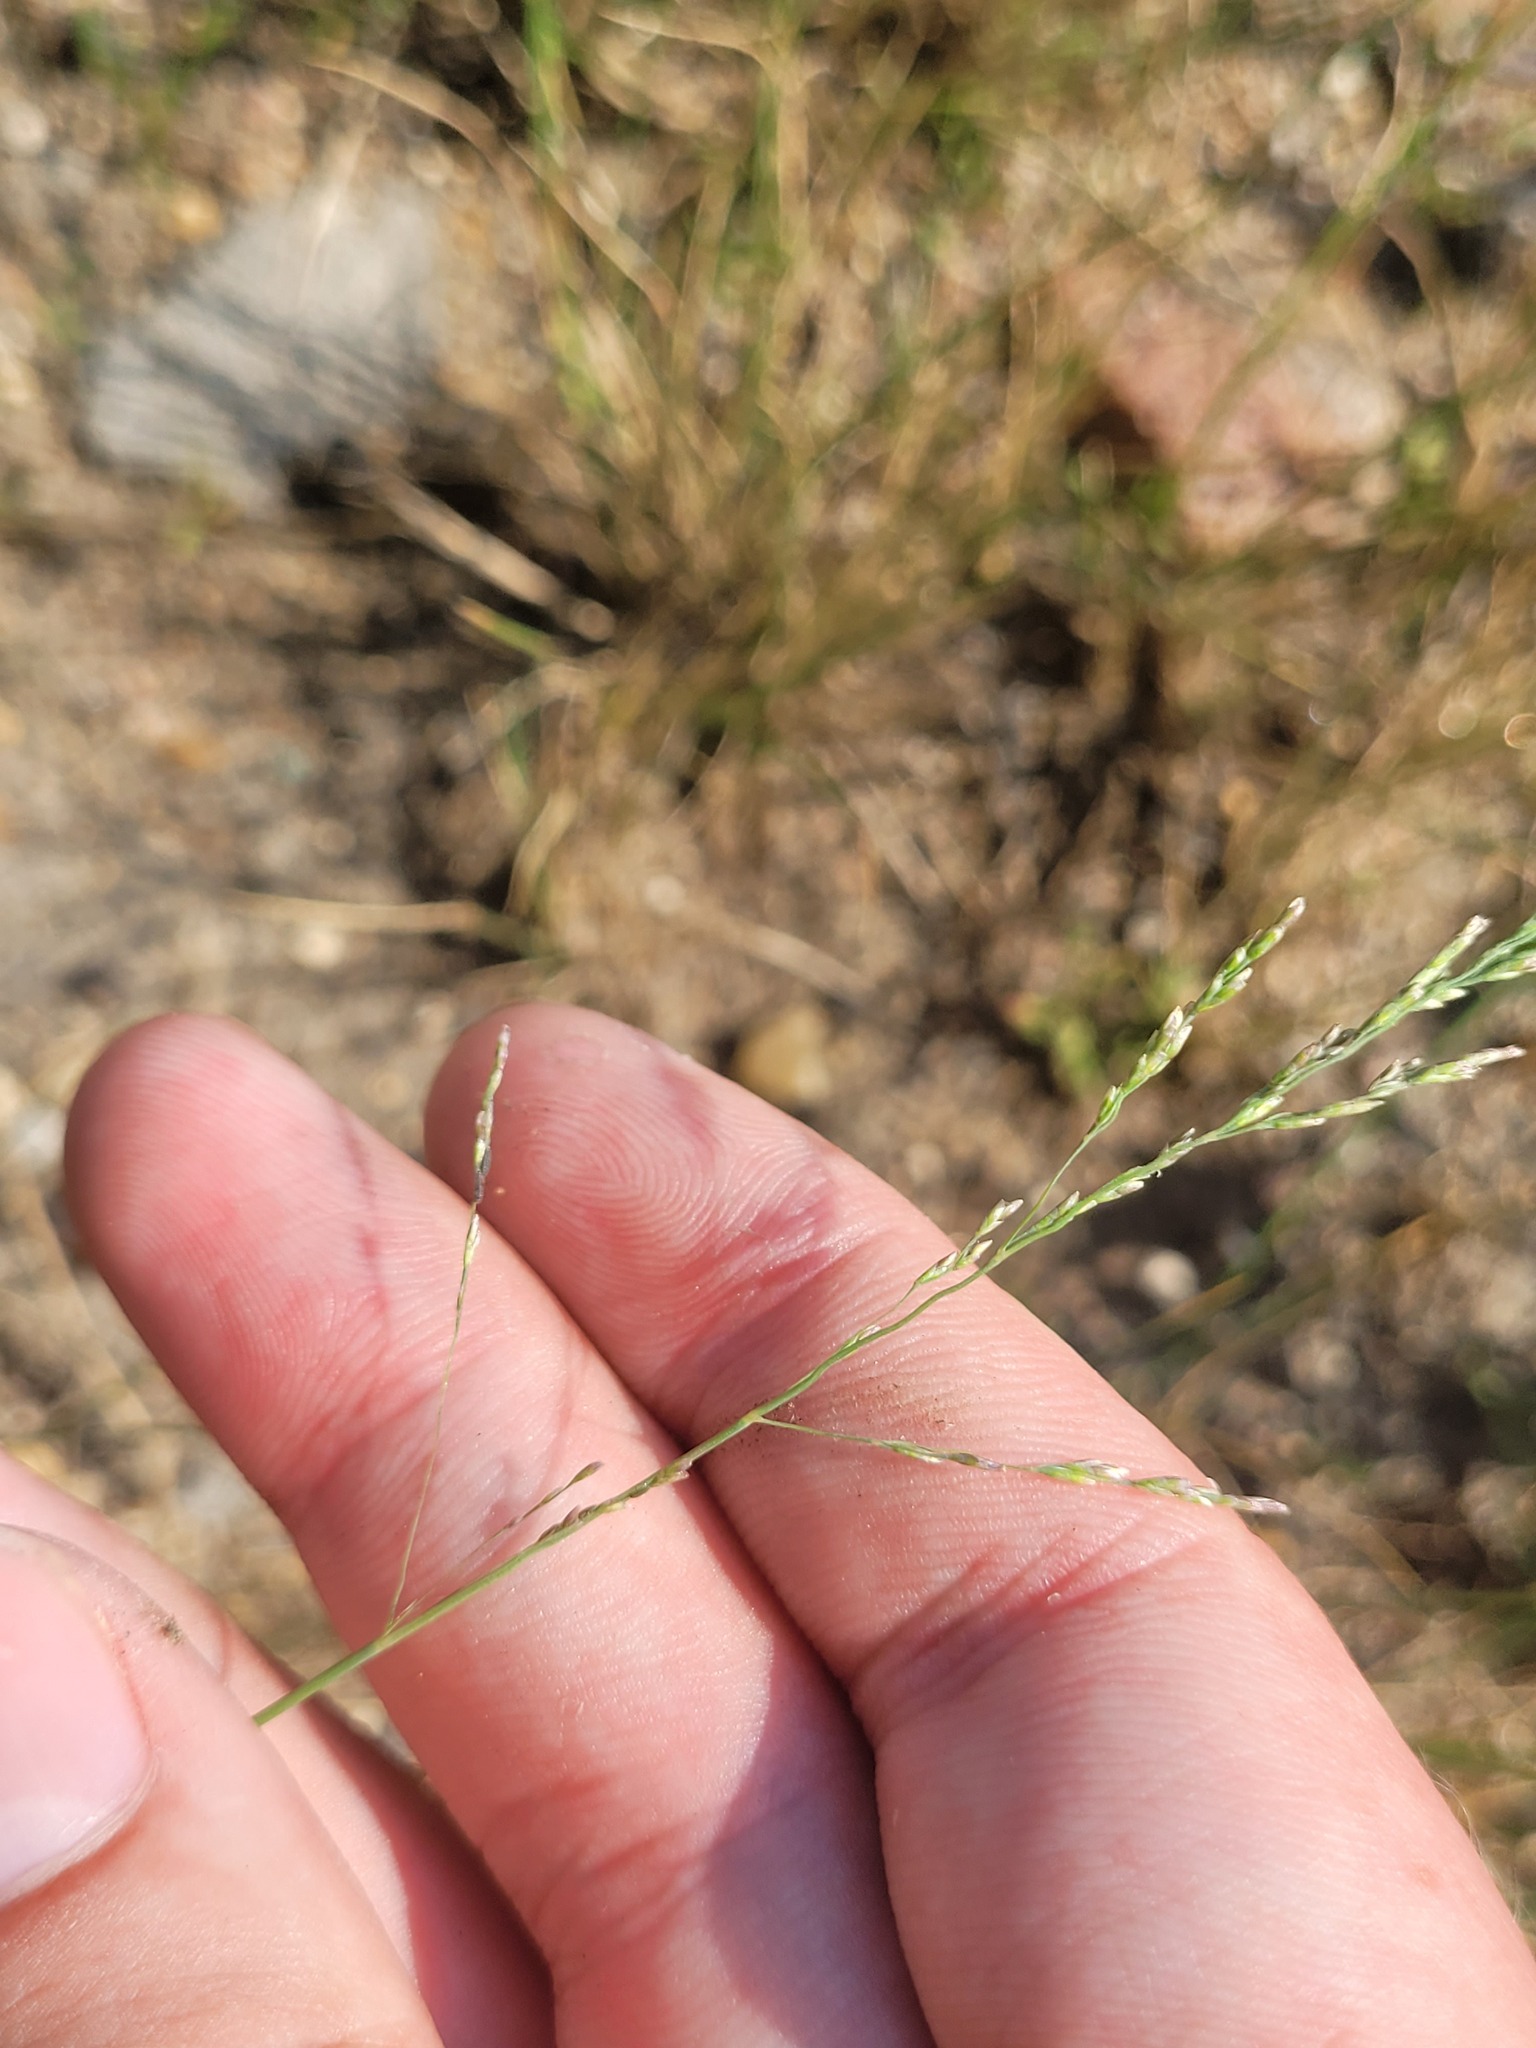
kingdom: Plantae
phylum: Tracheophyta
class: Liliopsida
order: Poales
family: Poaceae
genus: Puccinellia
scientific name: Puccinellia distans
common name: Weeping alkaligrass
